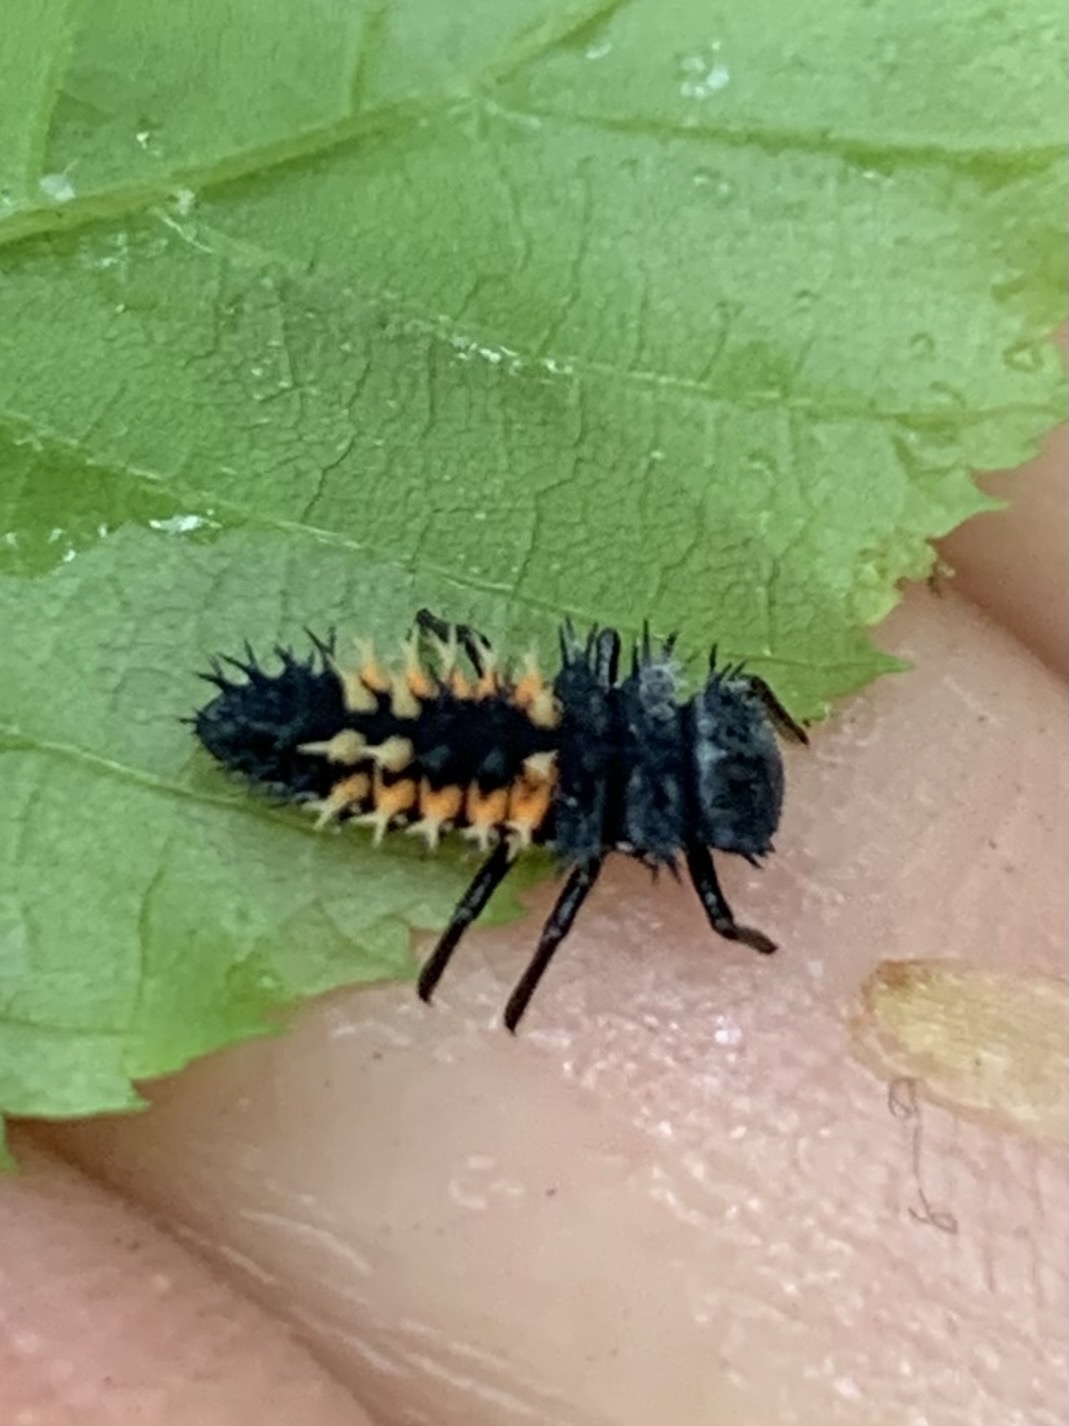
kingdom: Animalia
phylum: Arthropoda
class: Insecta
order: Coleoptera
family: Coccinellidae
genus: Harmonia
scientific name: Harmonia axyridis
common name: Harlequin ladybird
